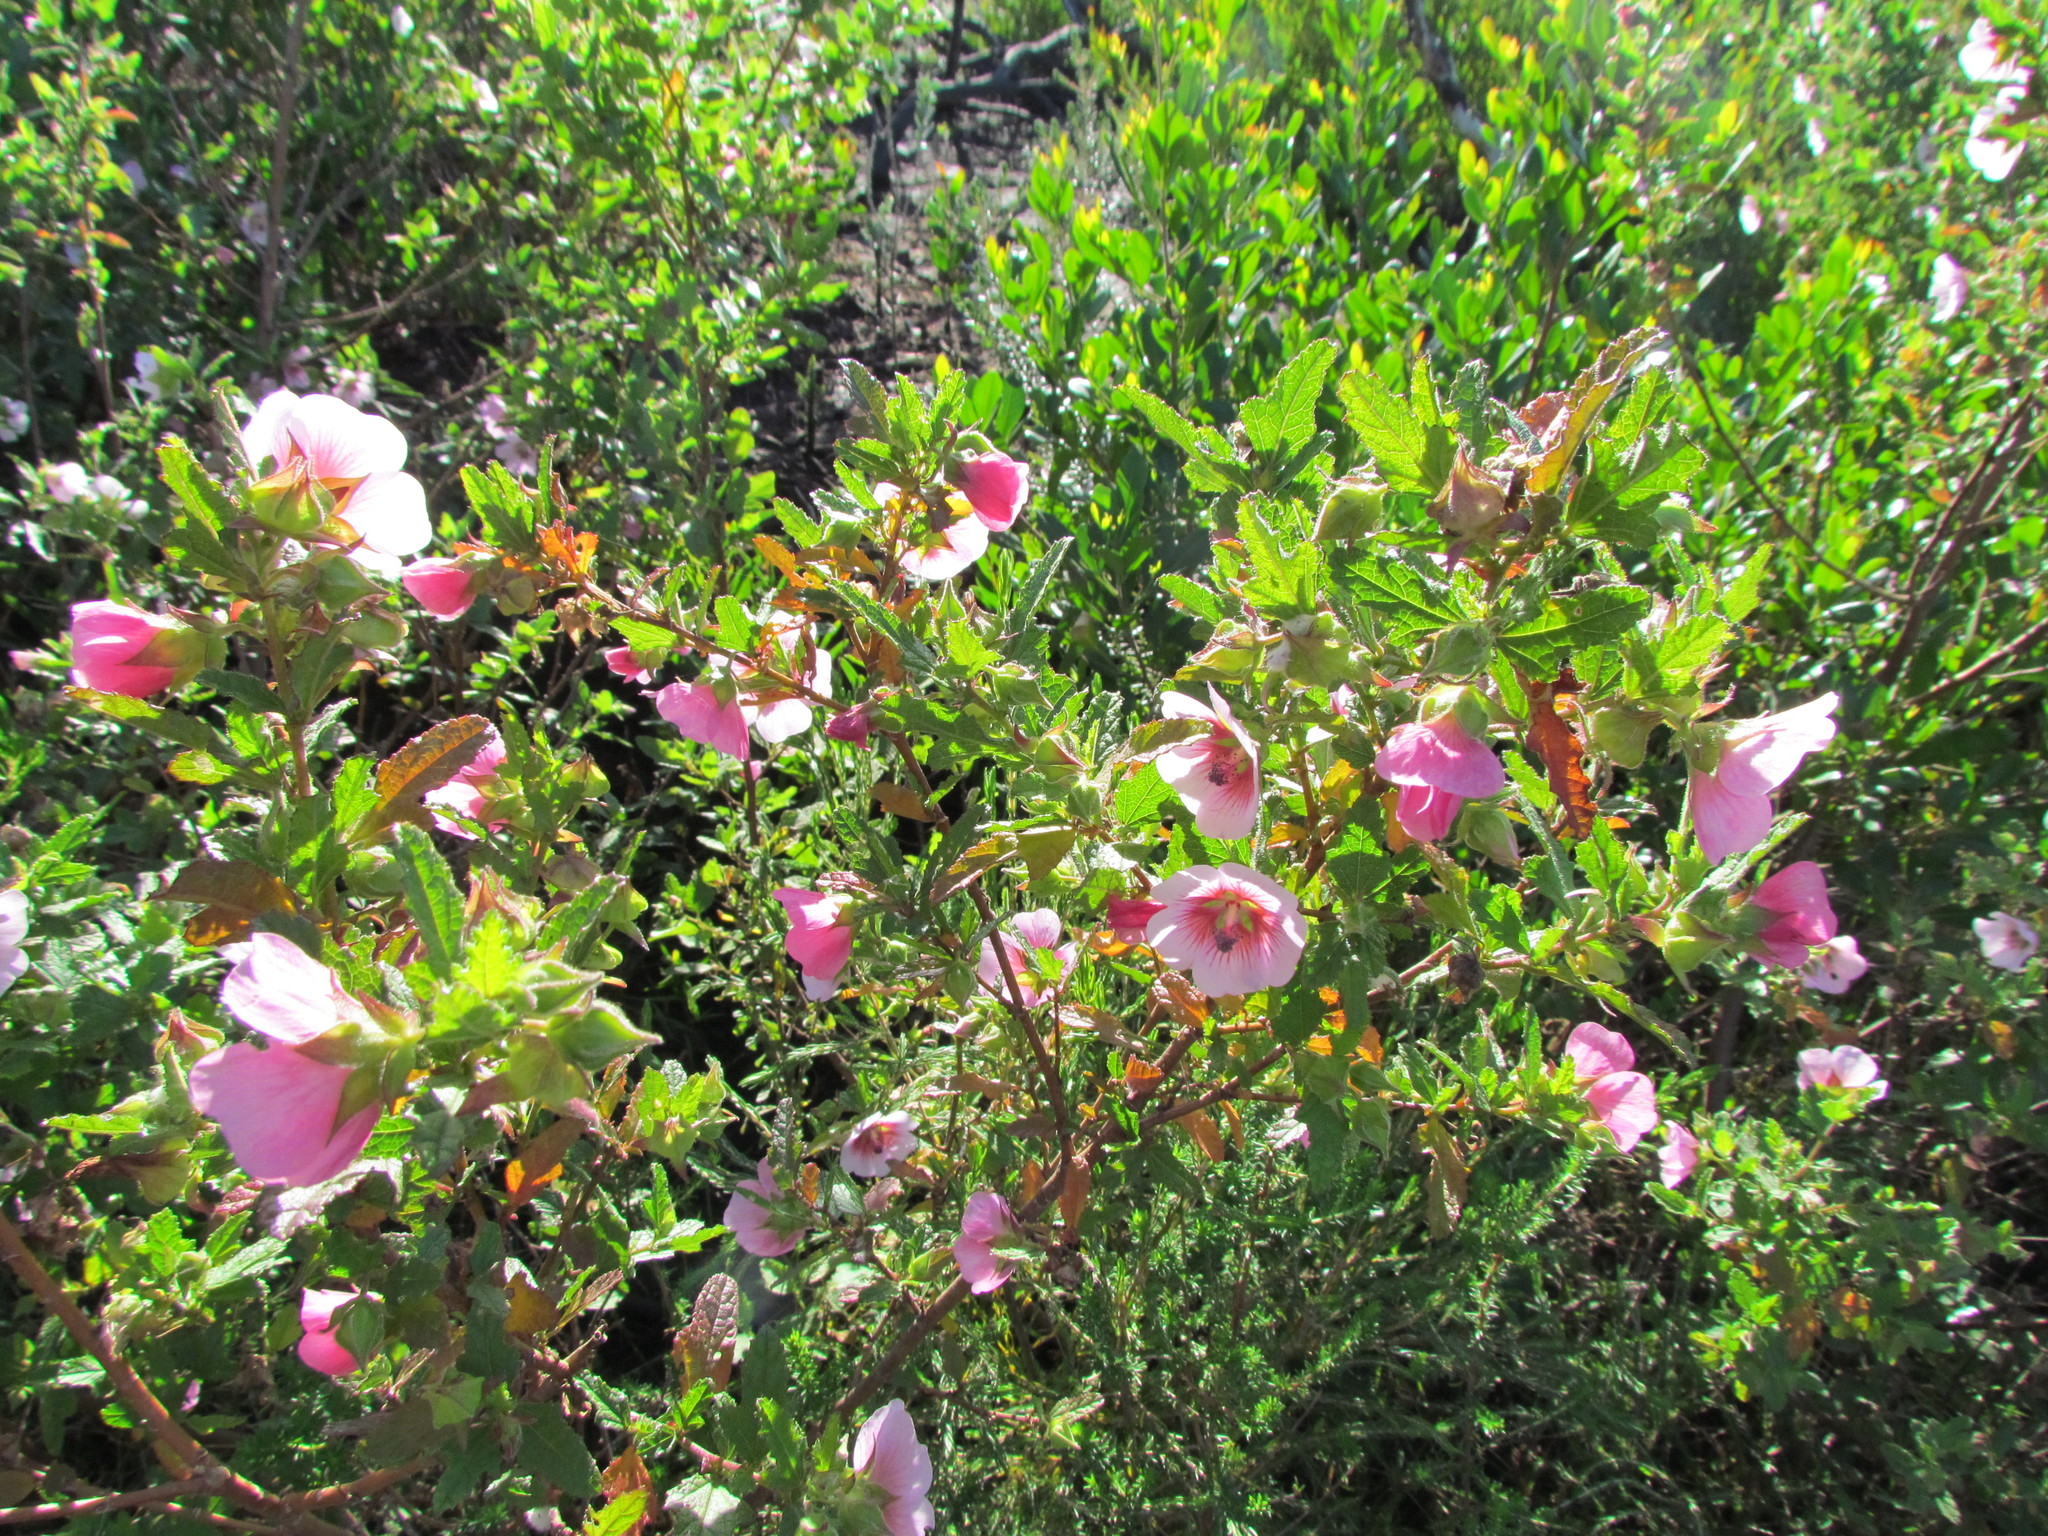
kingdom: Plantae
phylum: Tracheophyta
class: Magnoliopsida
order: Malvales
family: Malvaceae
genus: Anisodontea
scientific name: Anisodontea scabrosa
